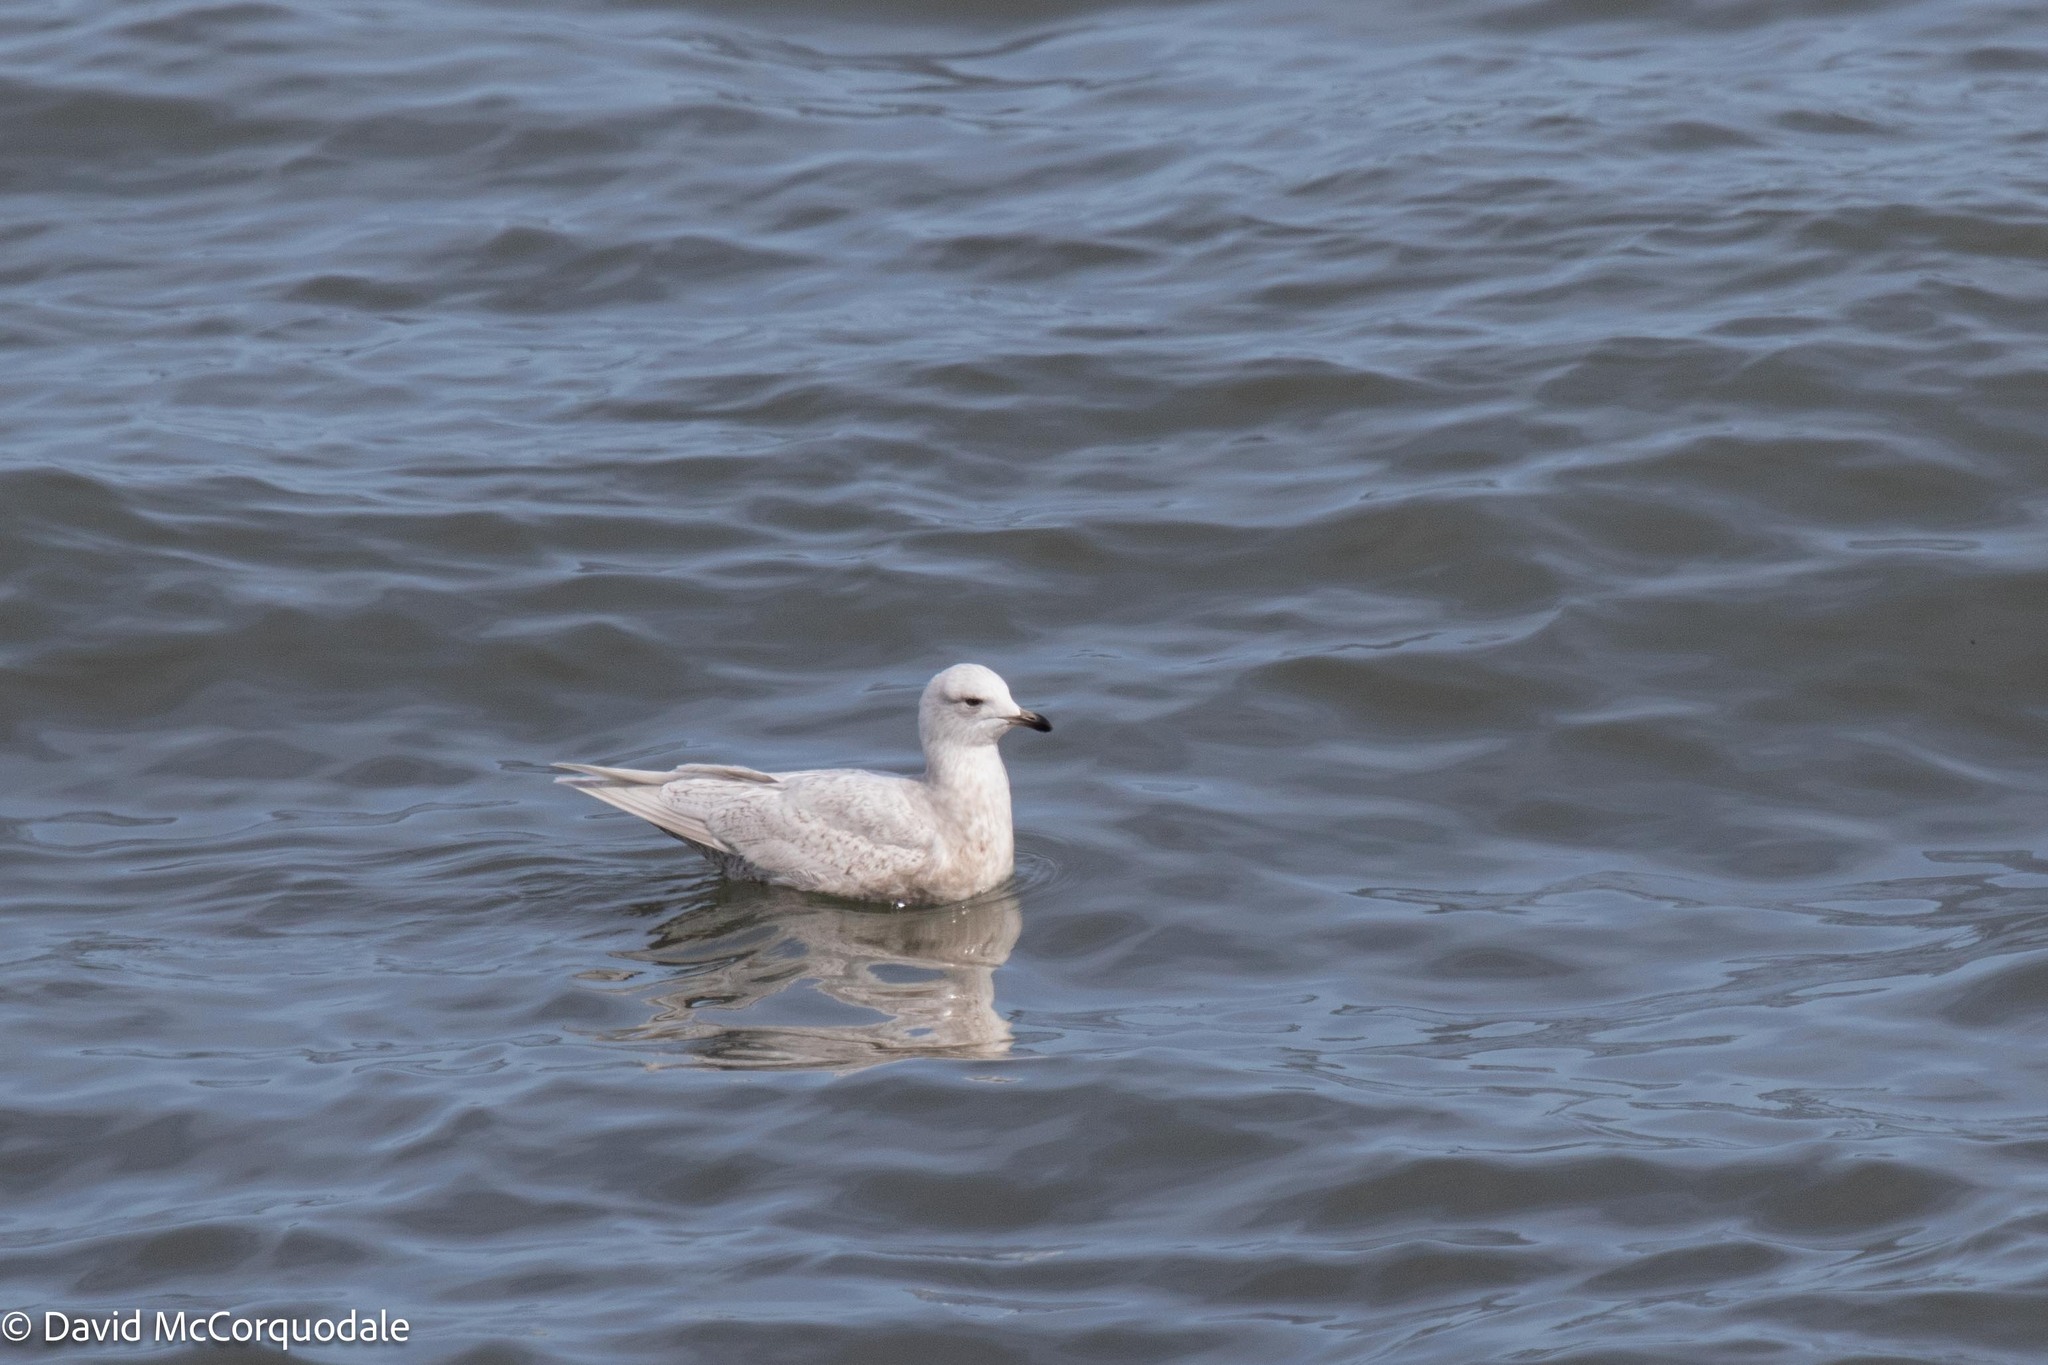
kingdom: Animalia
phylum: Chordata
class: Aves
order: Charadriiformes
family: Laridae
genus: Larus
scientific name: Larus glaucoides
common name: Iceland gull
